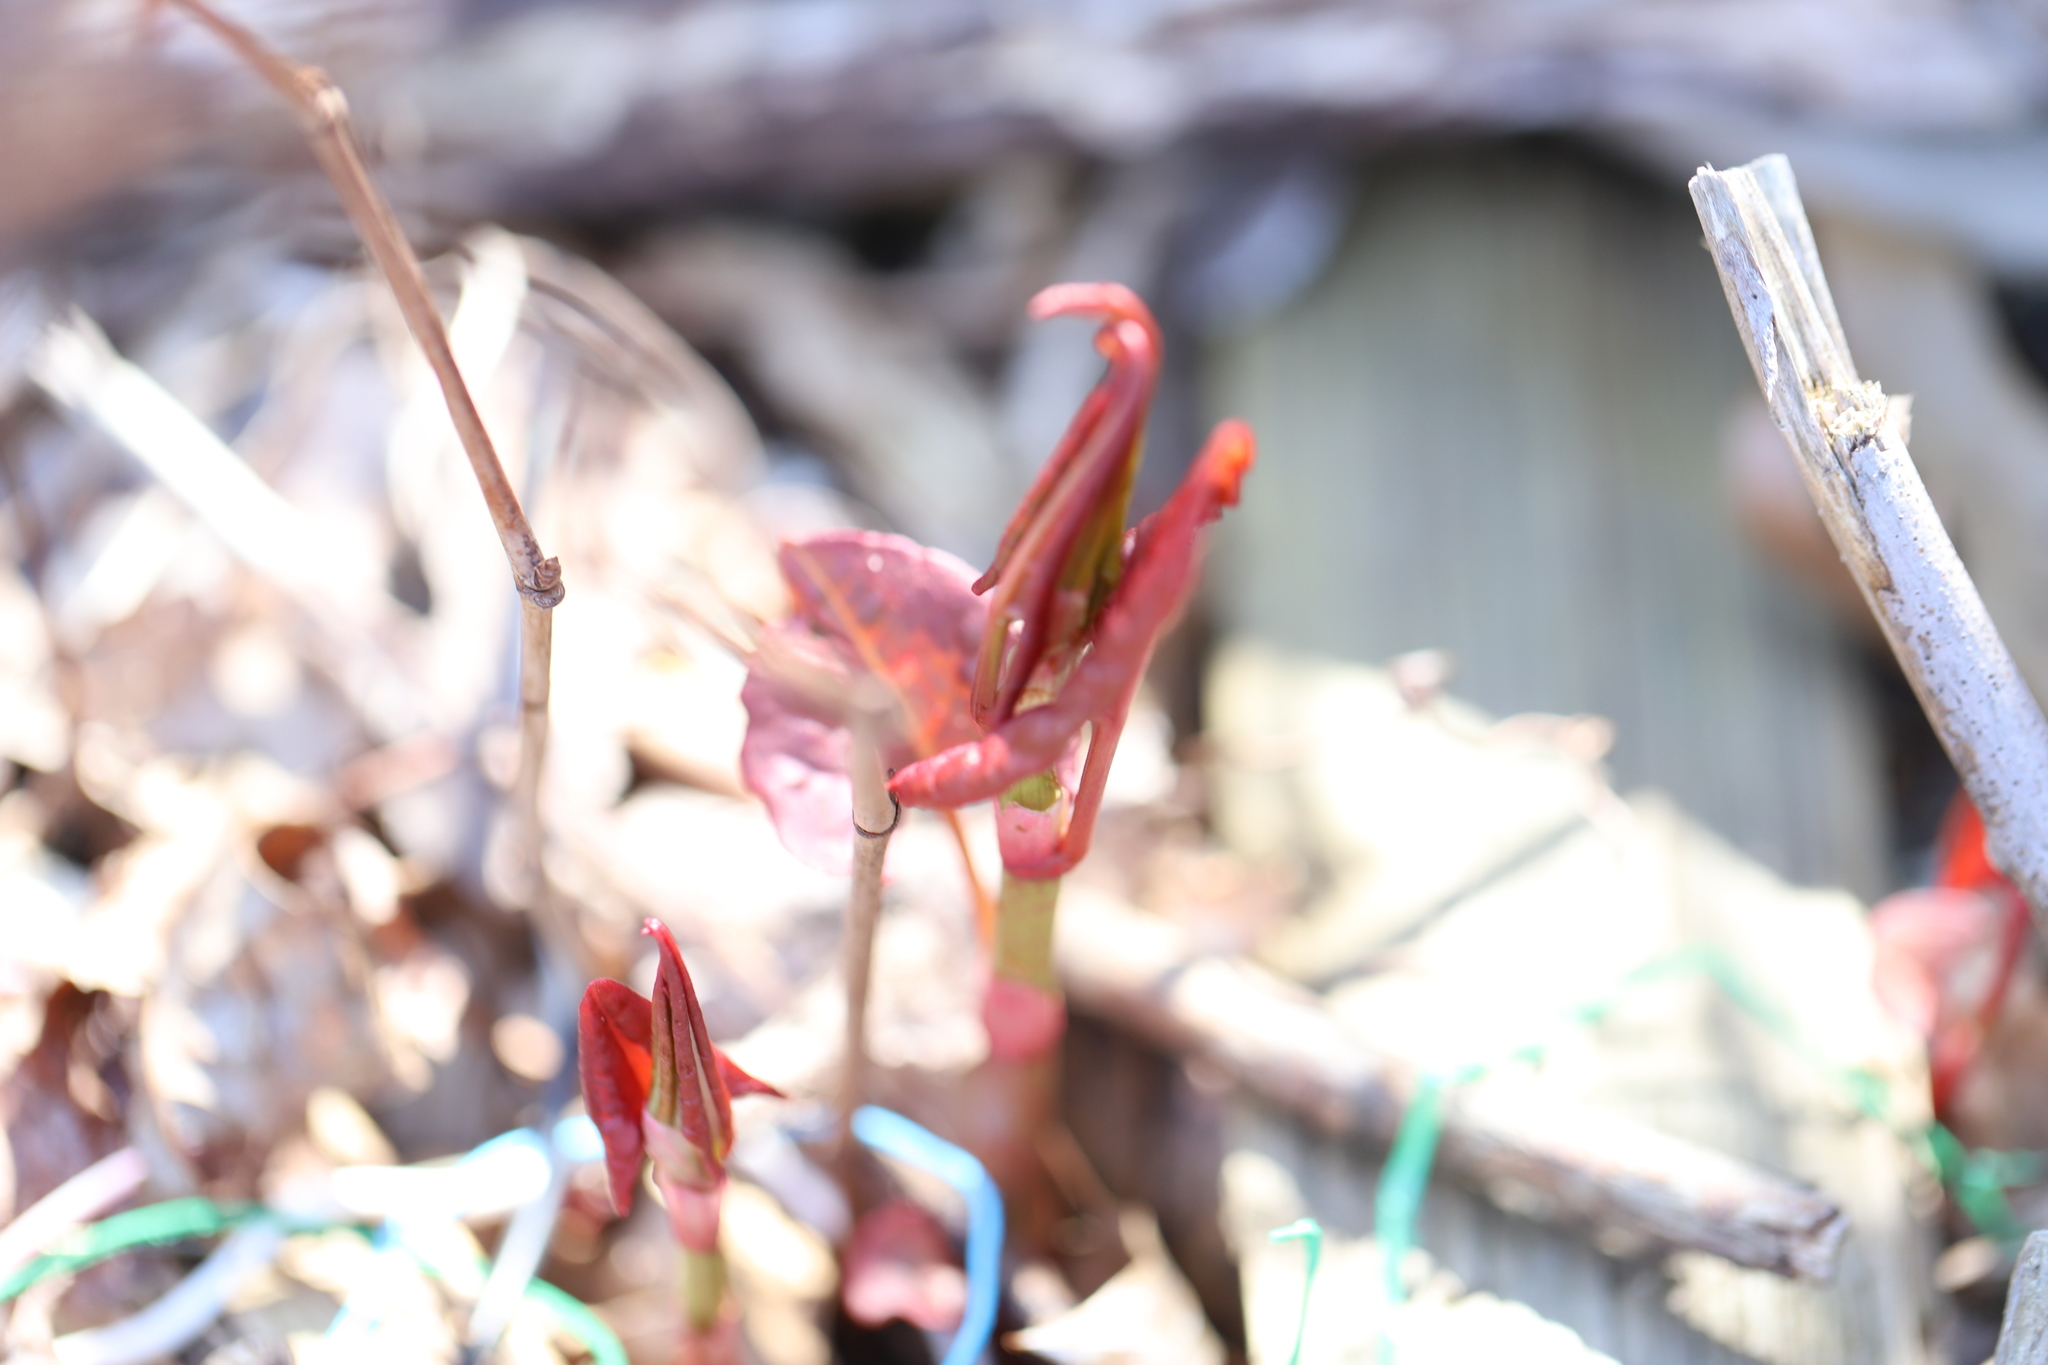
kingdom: Plantae
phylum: Tracheophyta
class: Magnoliopsida
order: Caryophyllales
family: Polygonaceae
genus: Reynoutria
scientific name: Reynoutria japonica
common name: Japanese knotweed
